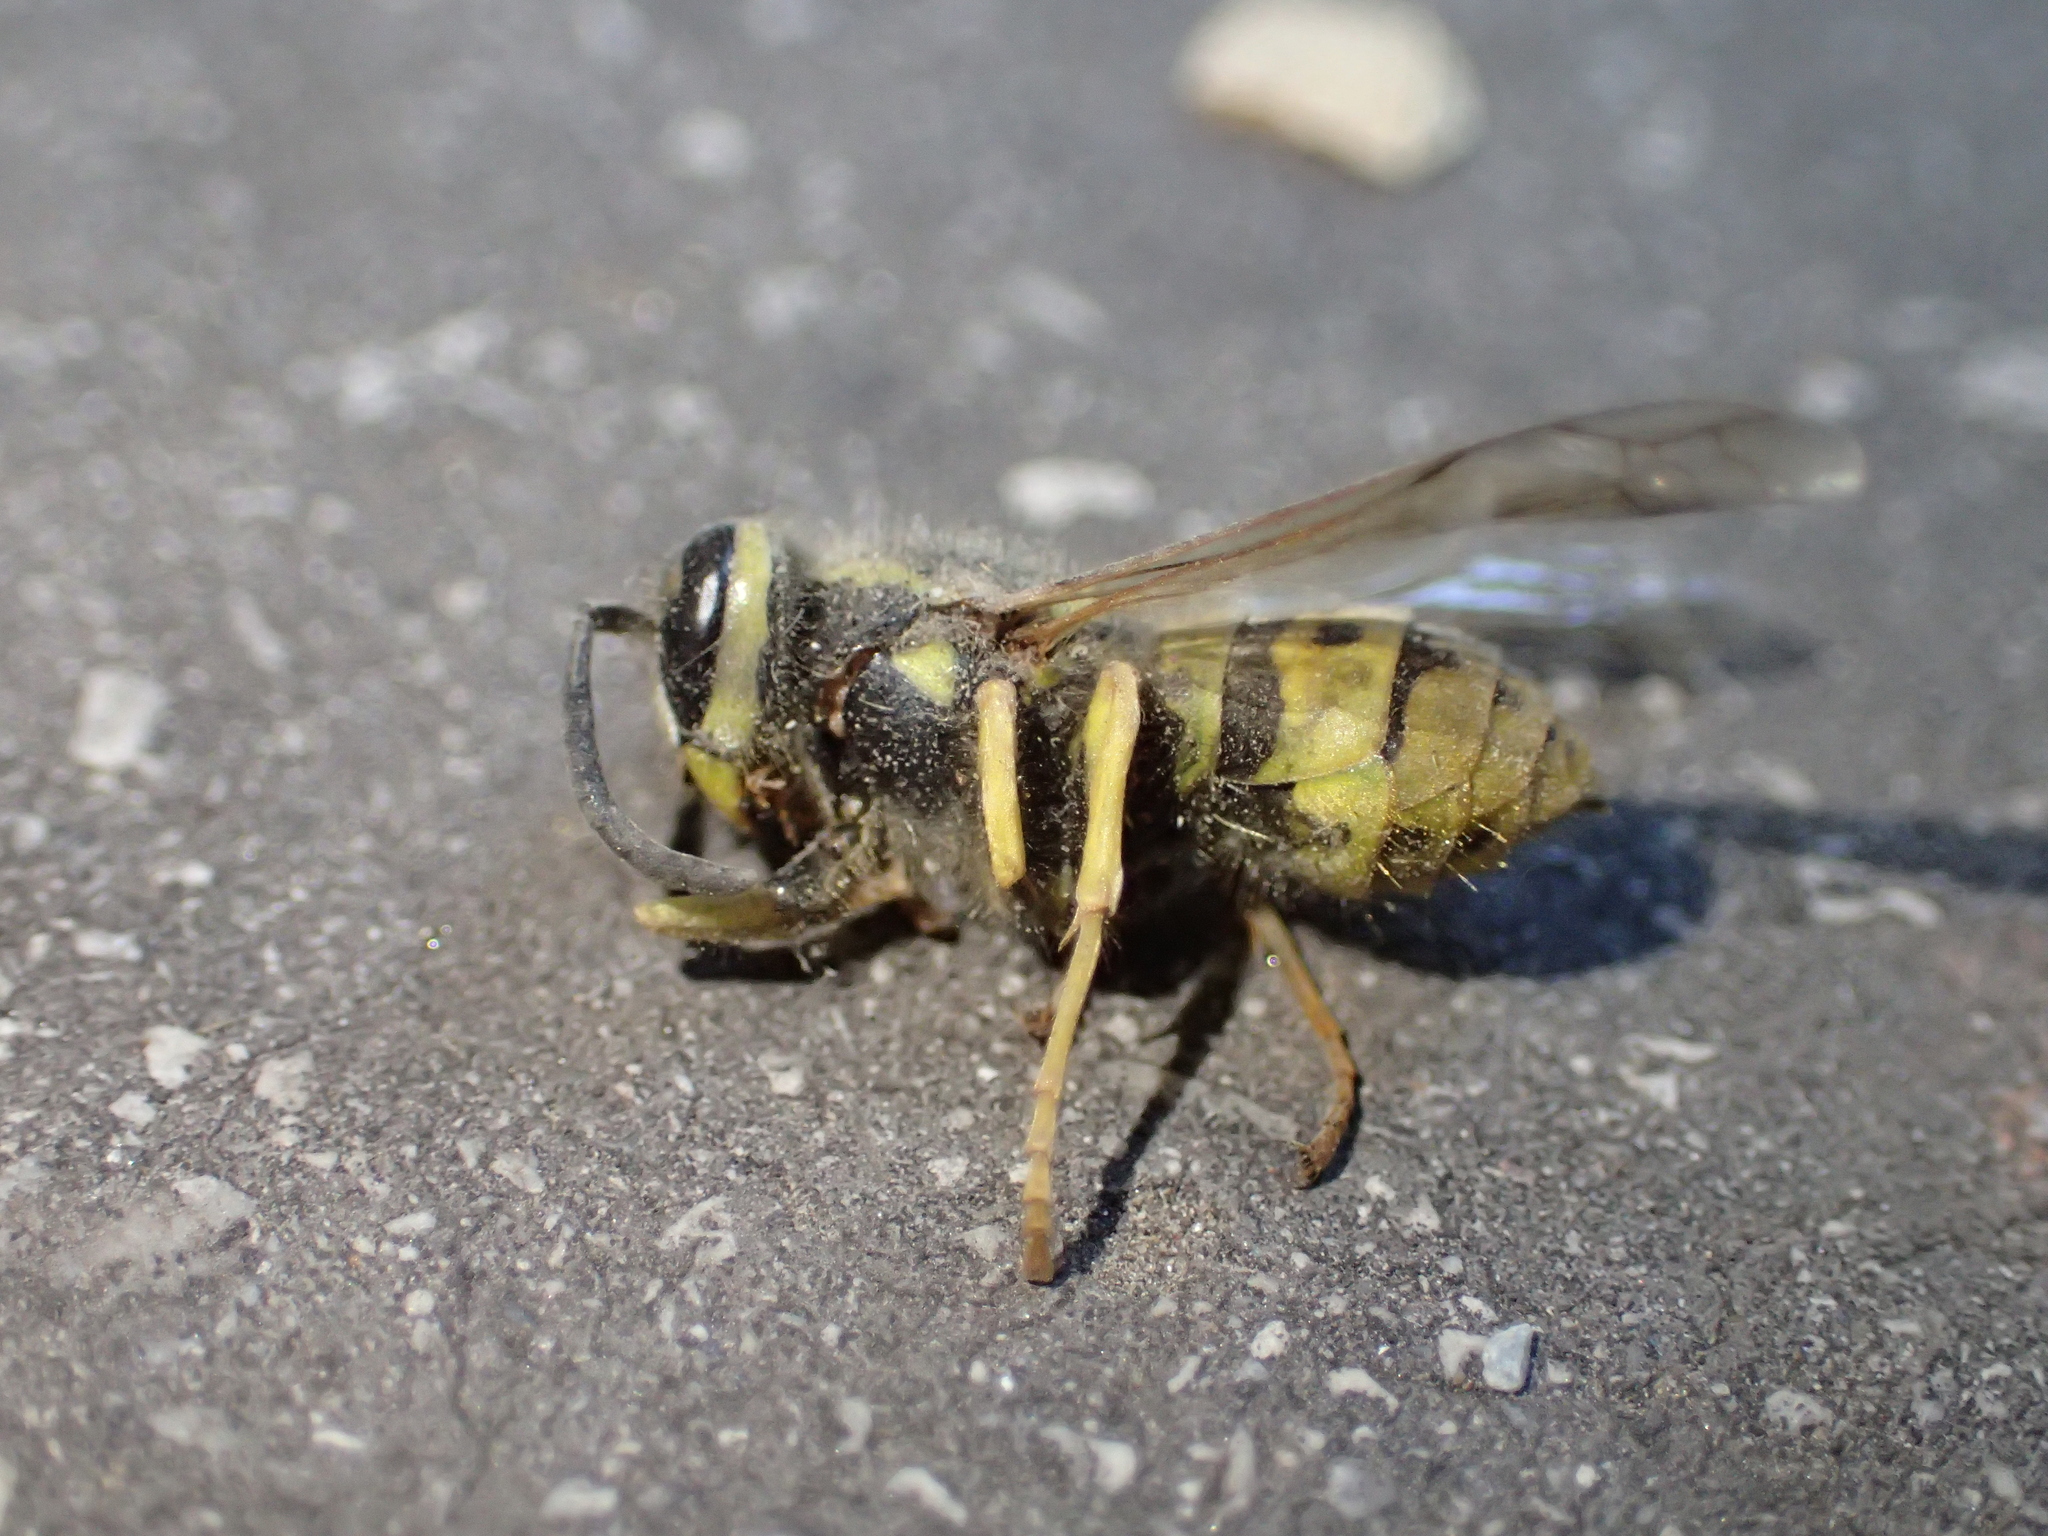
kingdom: Animalia
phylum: Arthropoda
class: Insecta
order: Hymenoptera
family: Vespidae
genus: Vespula
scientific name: Vespula germanica
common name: German wasp
